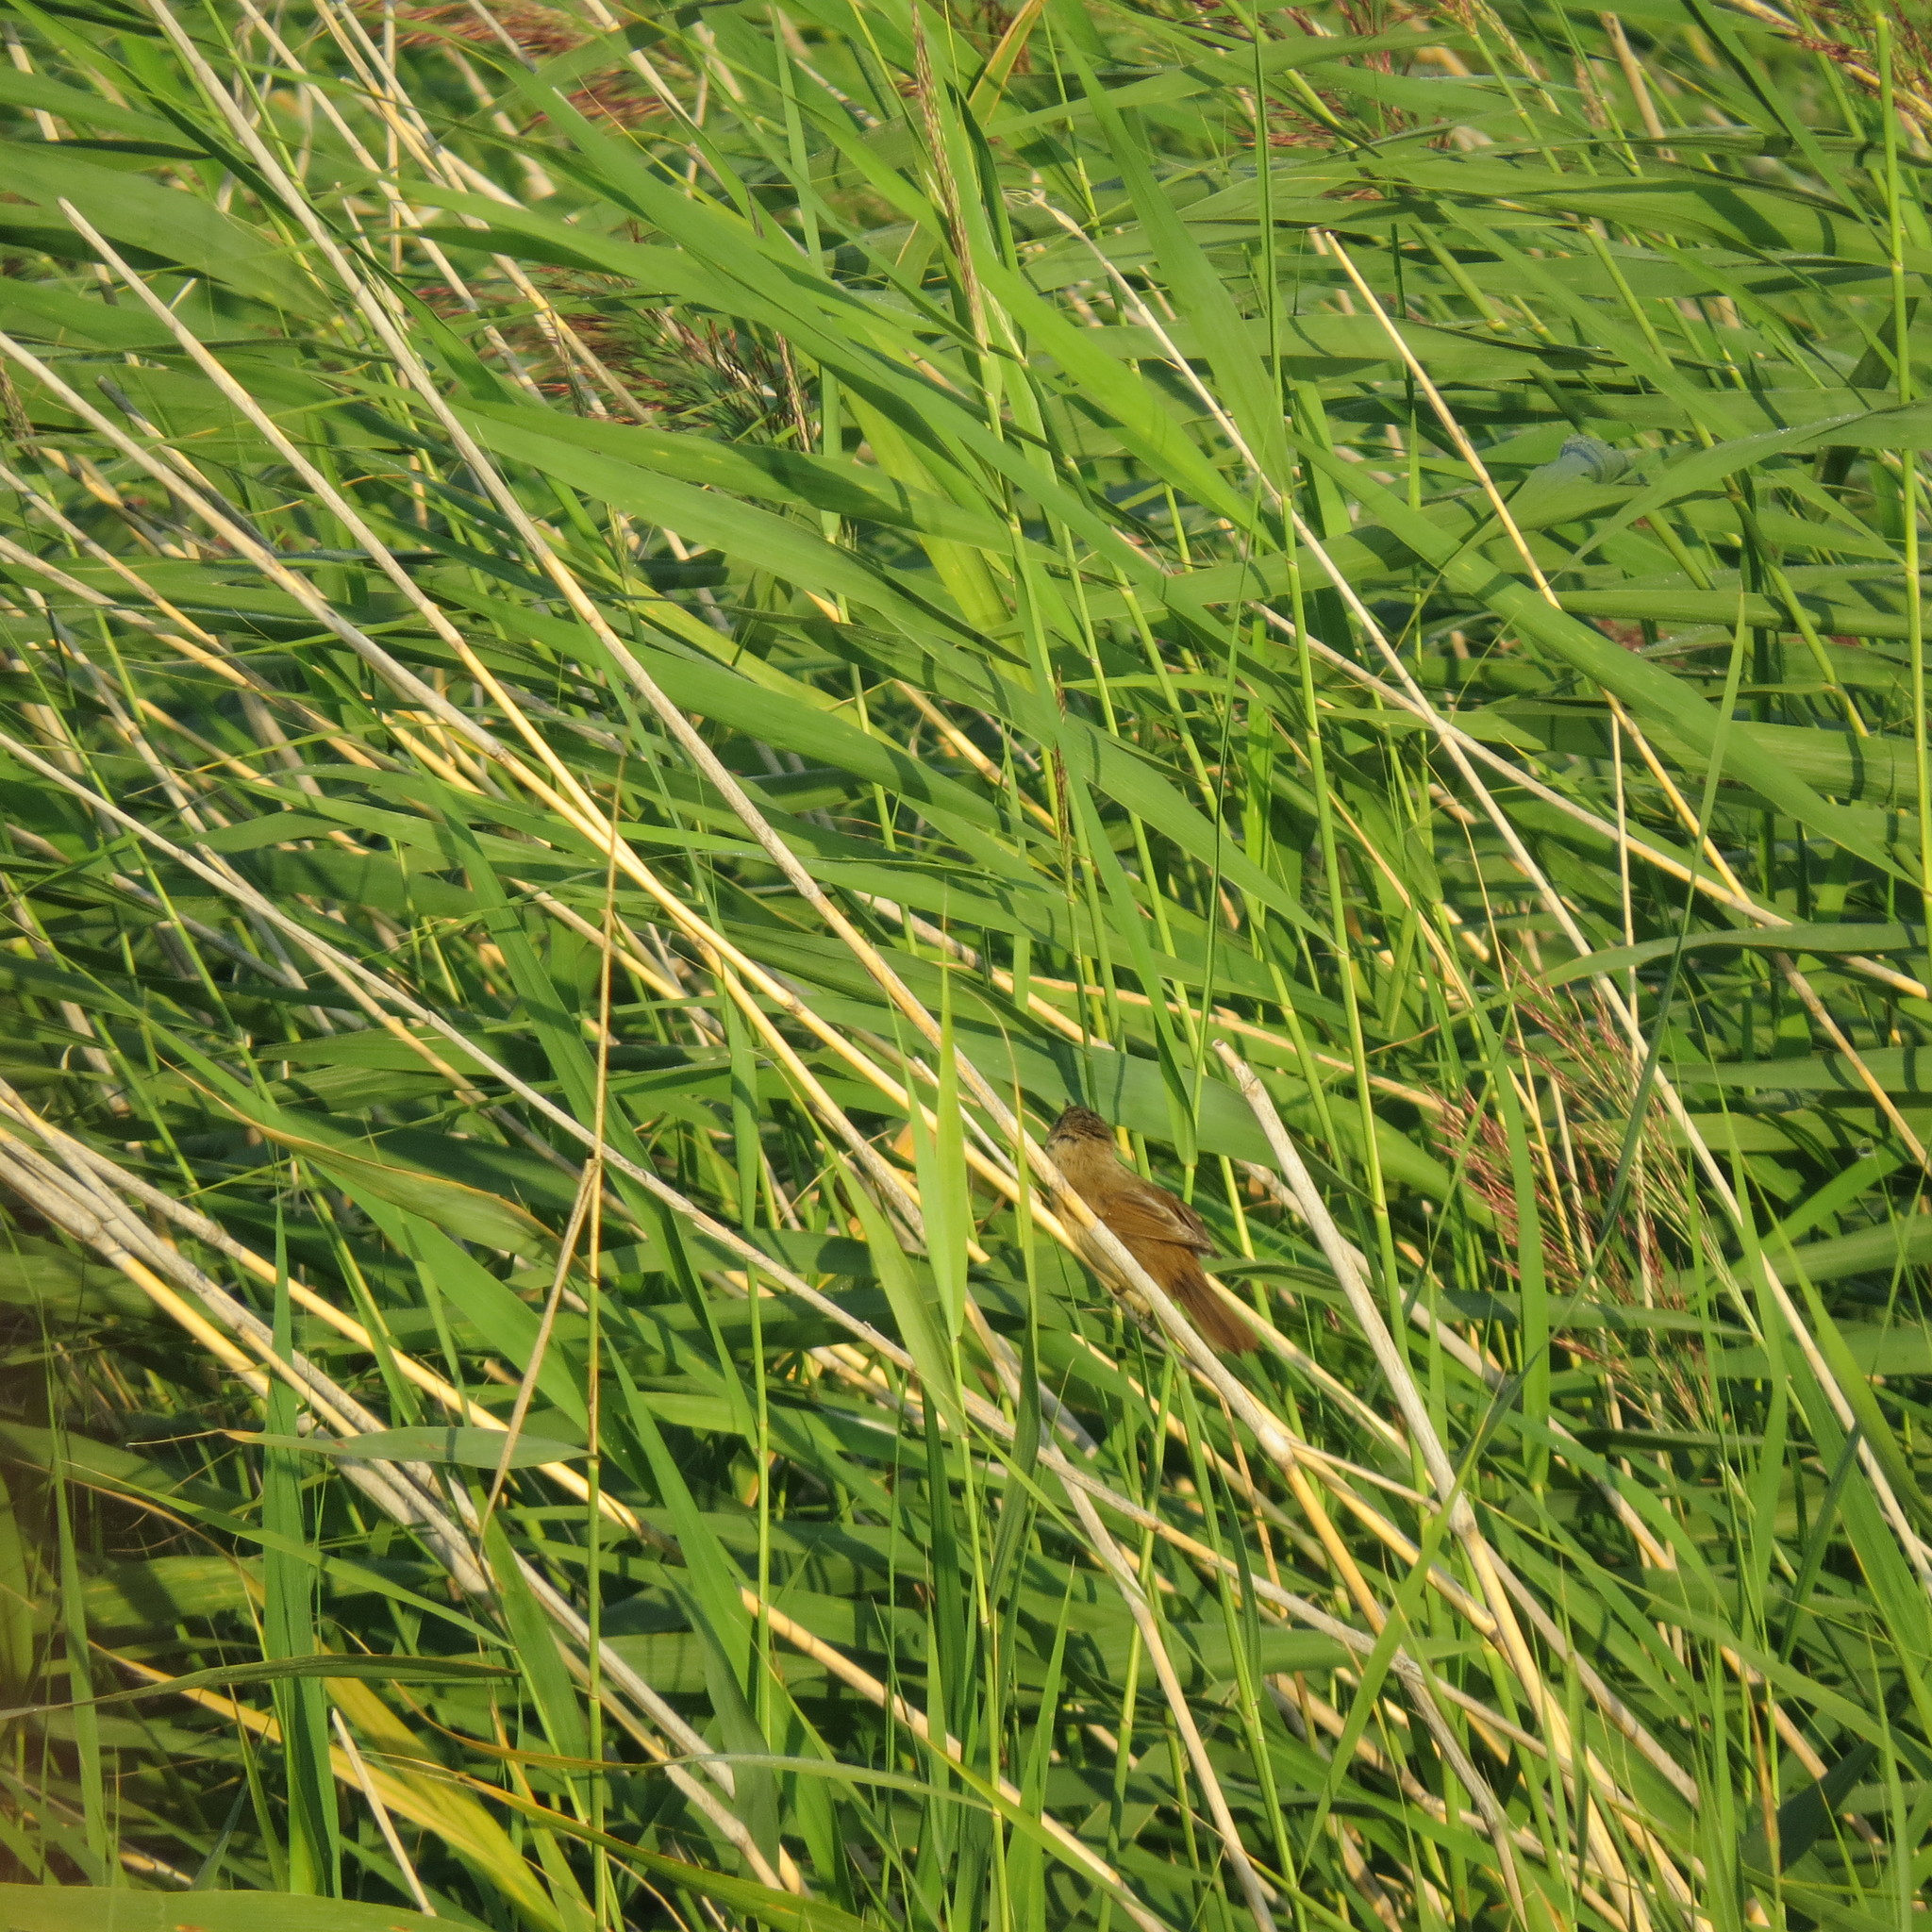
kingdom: Animalia
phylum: Chordata
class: Aves
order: Passeriformes
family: Acrocephalidae
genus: Acrocephalus
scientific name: Acrocephalus agricola
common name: Paddyfield warbler
